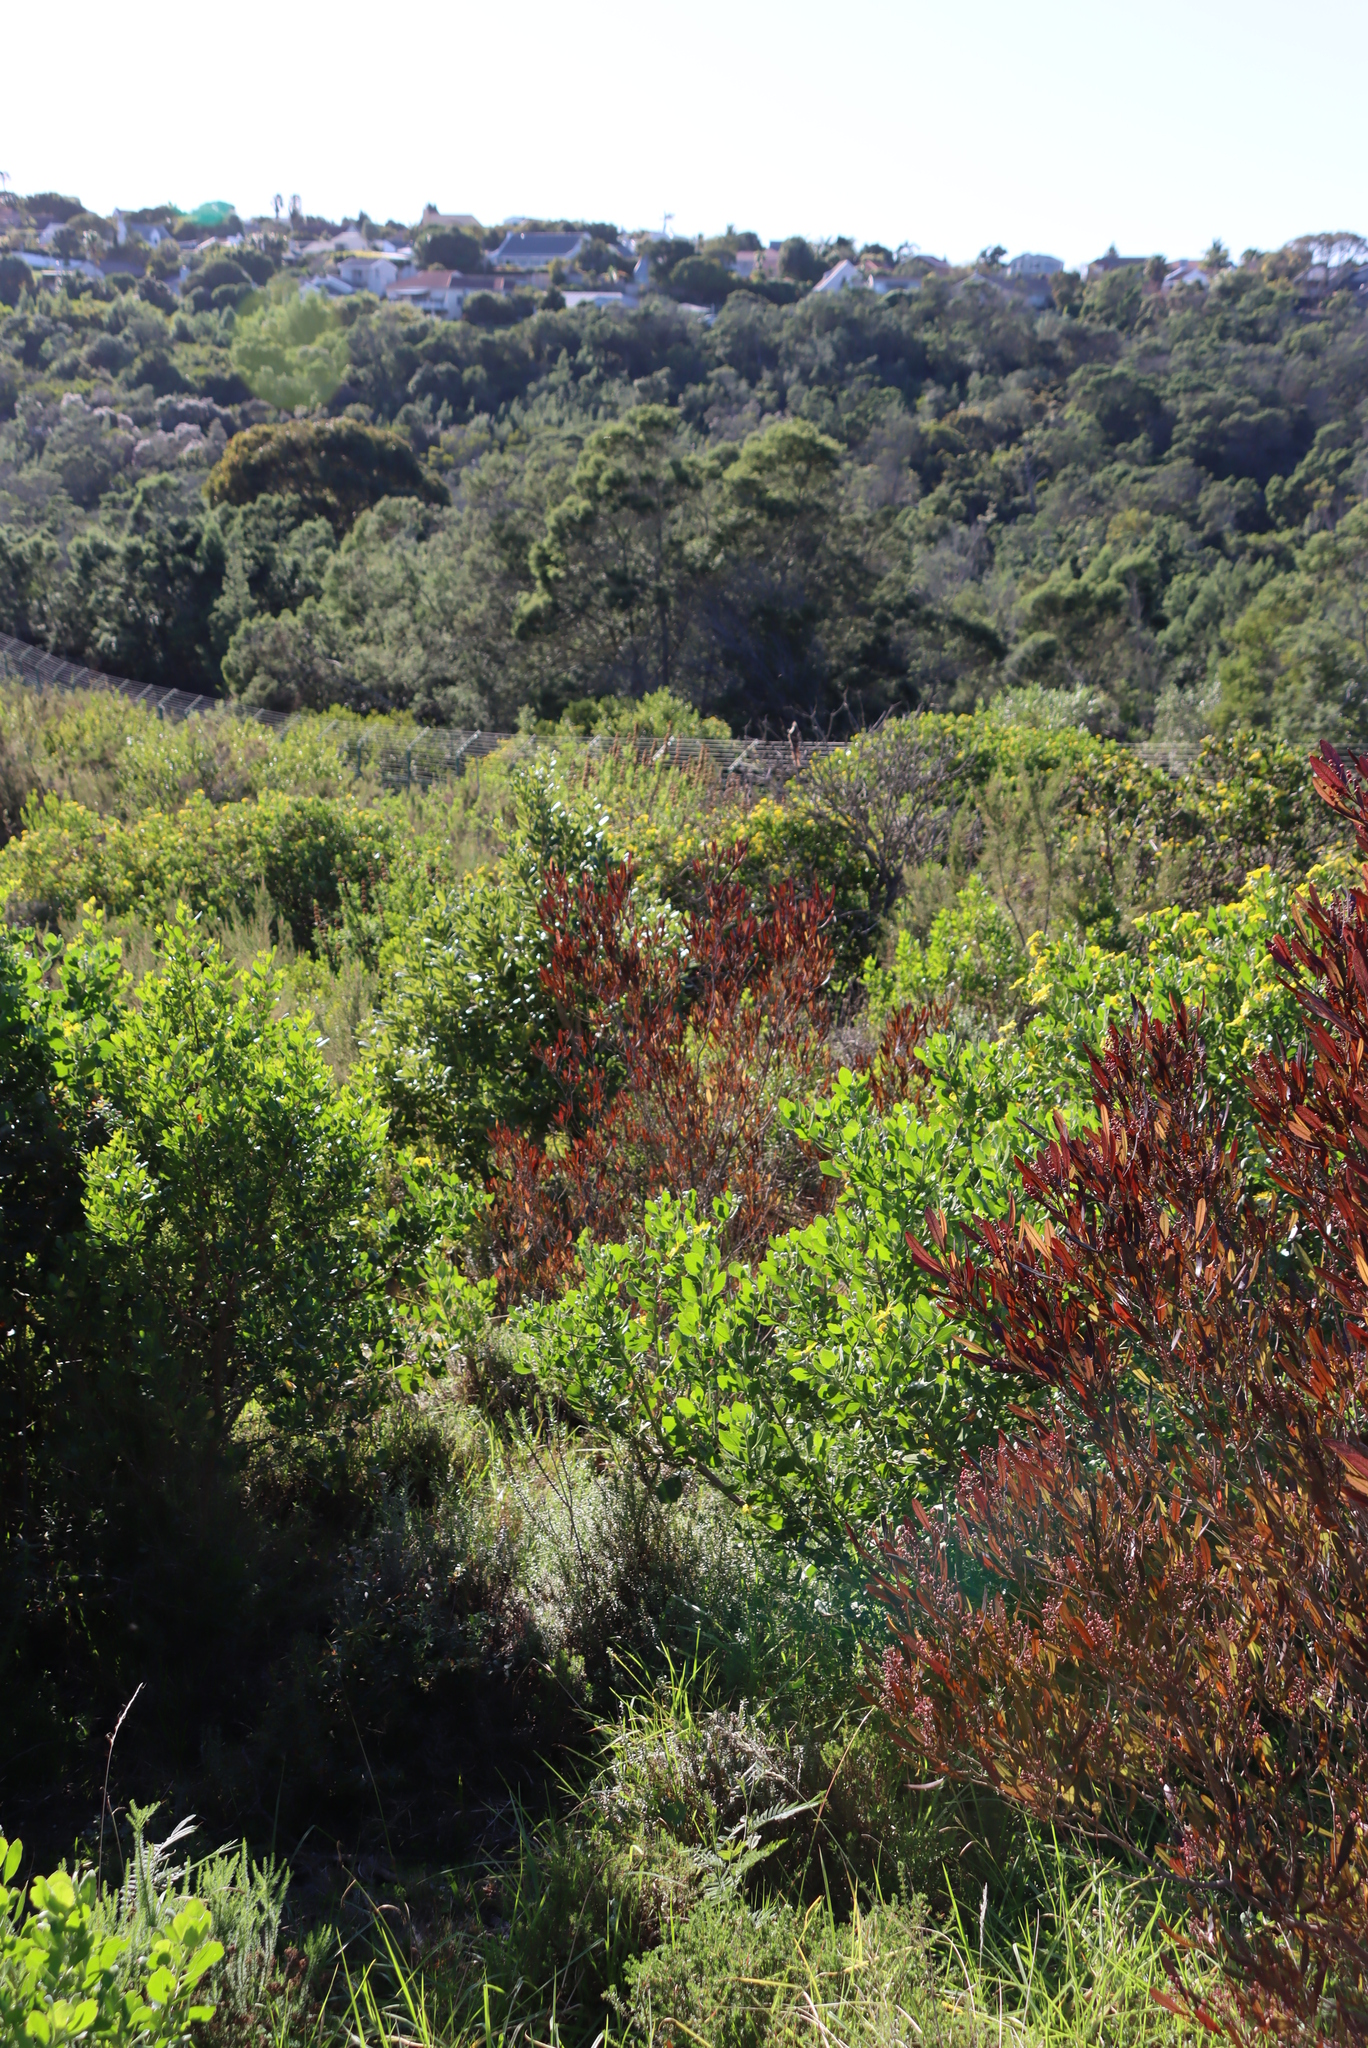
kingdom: Plantae
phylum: Tracheophyta
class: Magnoliopsida
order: Asterales
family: Asteraceae
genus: Osteospermum
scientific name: Osteospermum moniliferum
